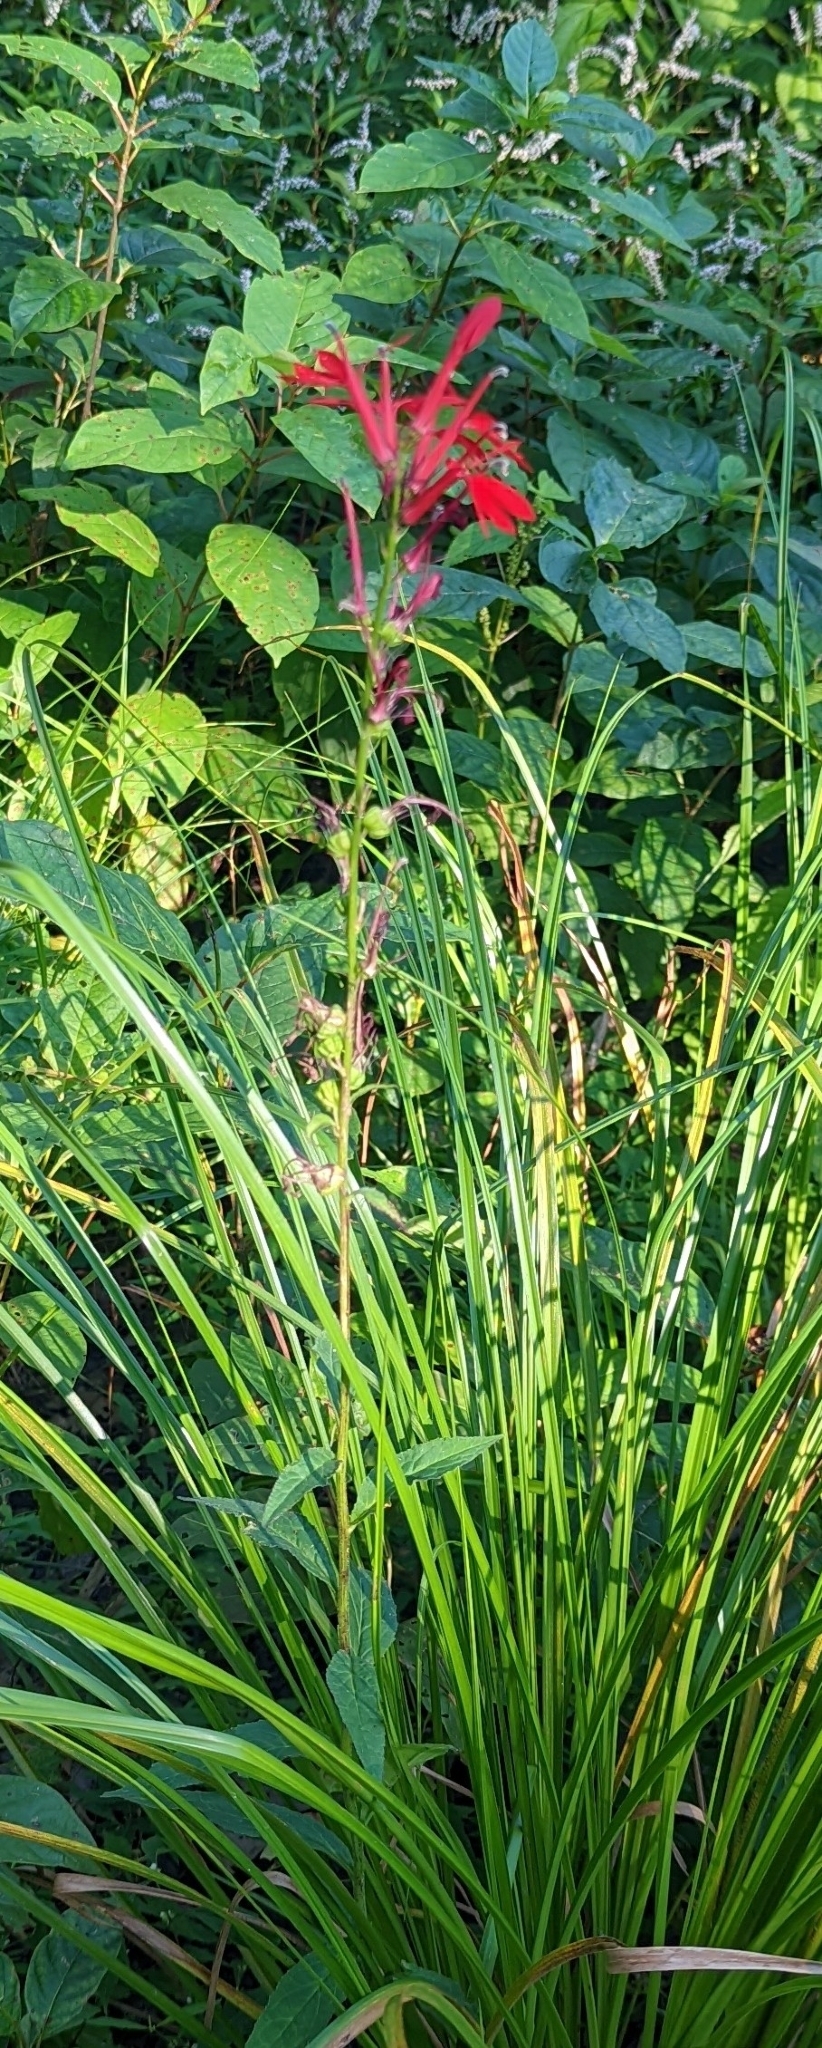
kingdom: Plantae
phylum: Tracheophyta
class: Magnoliopsida
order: Asterales
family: Campanulaceae
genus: Lobelia
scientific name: Lobelia cardinalis
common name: Cardinal flower
